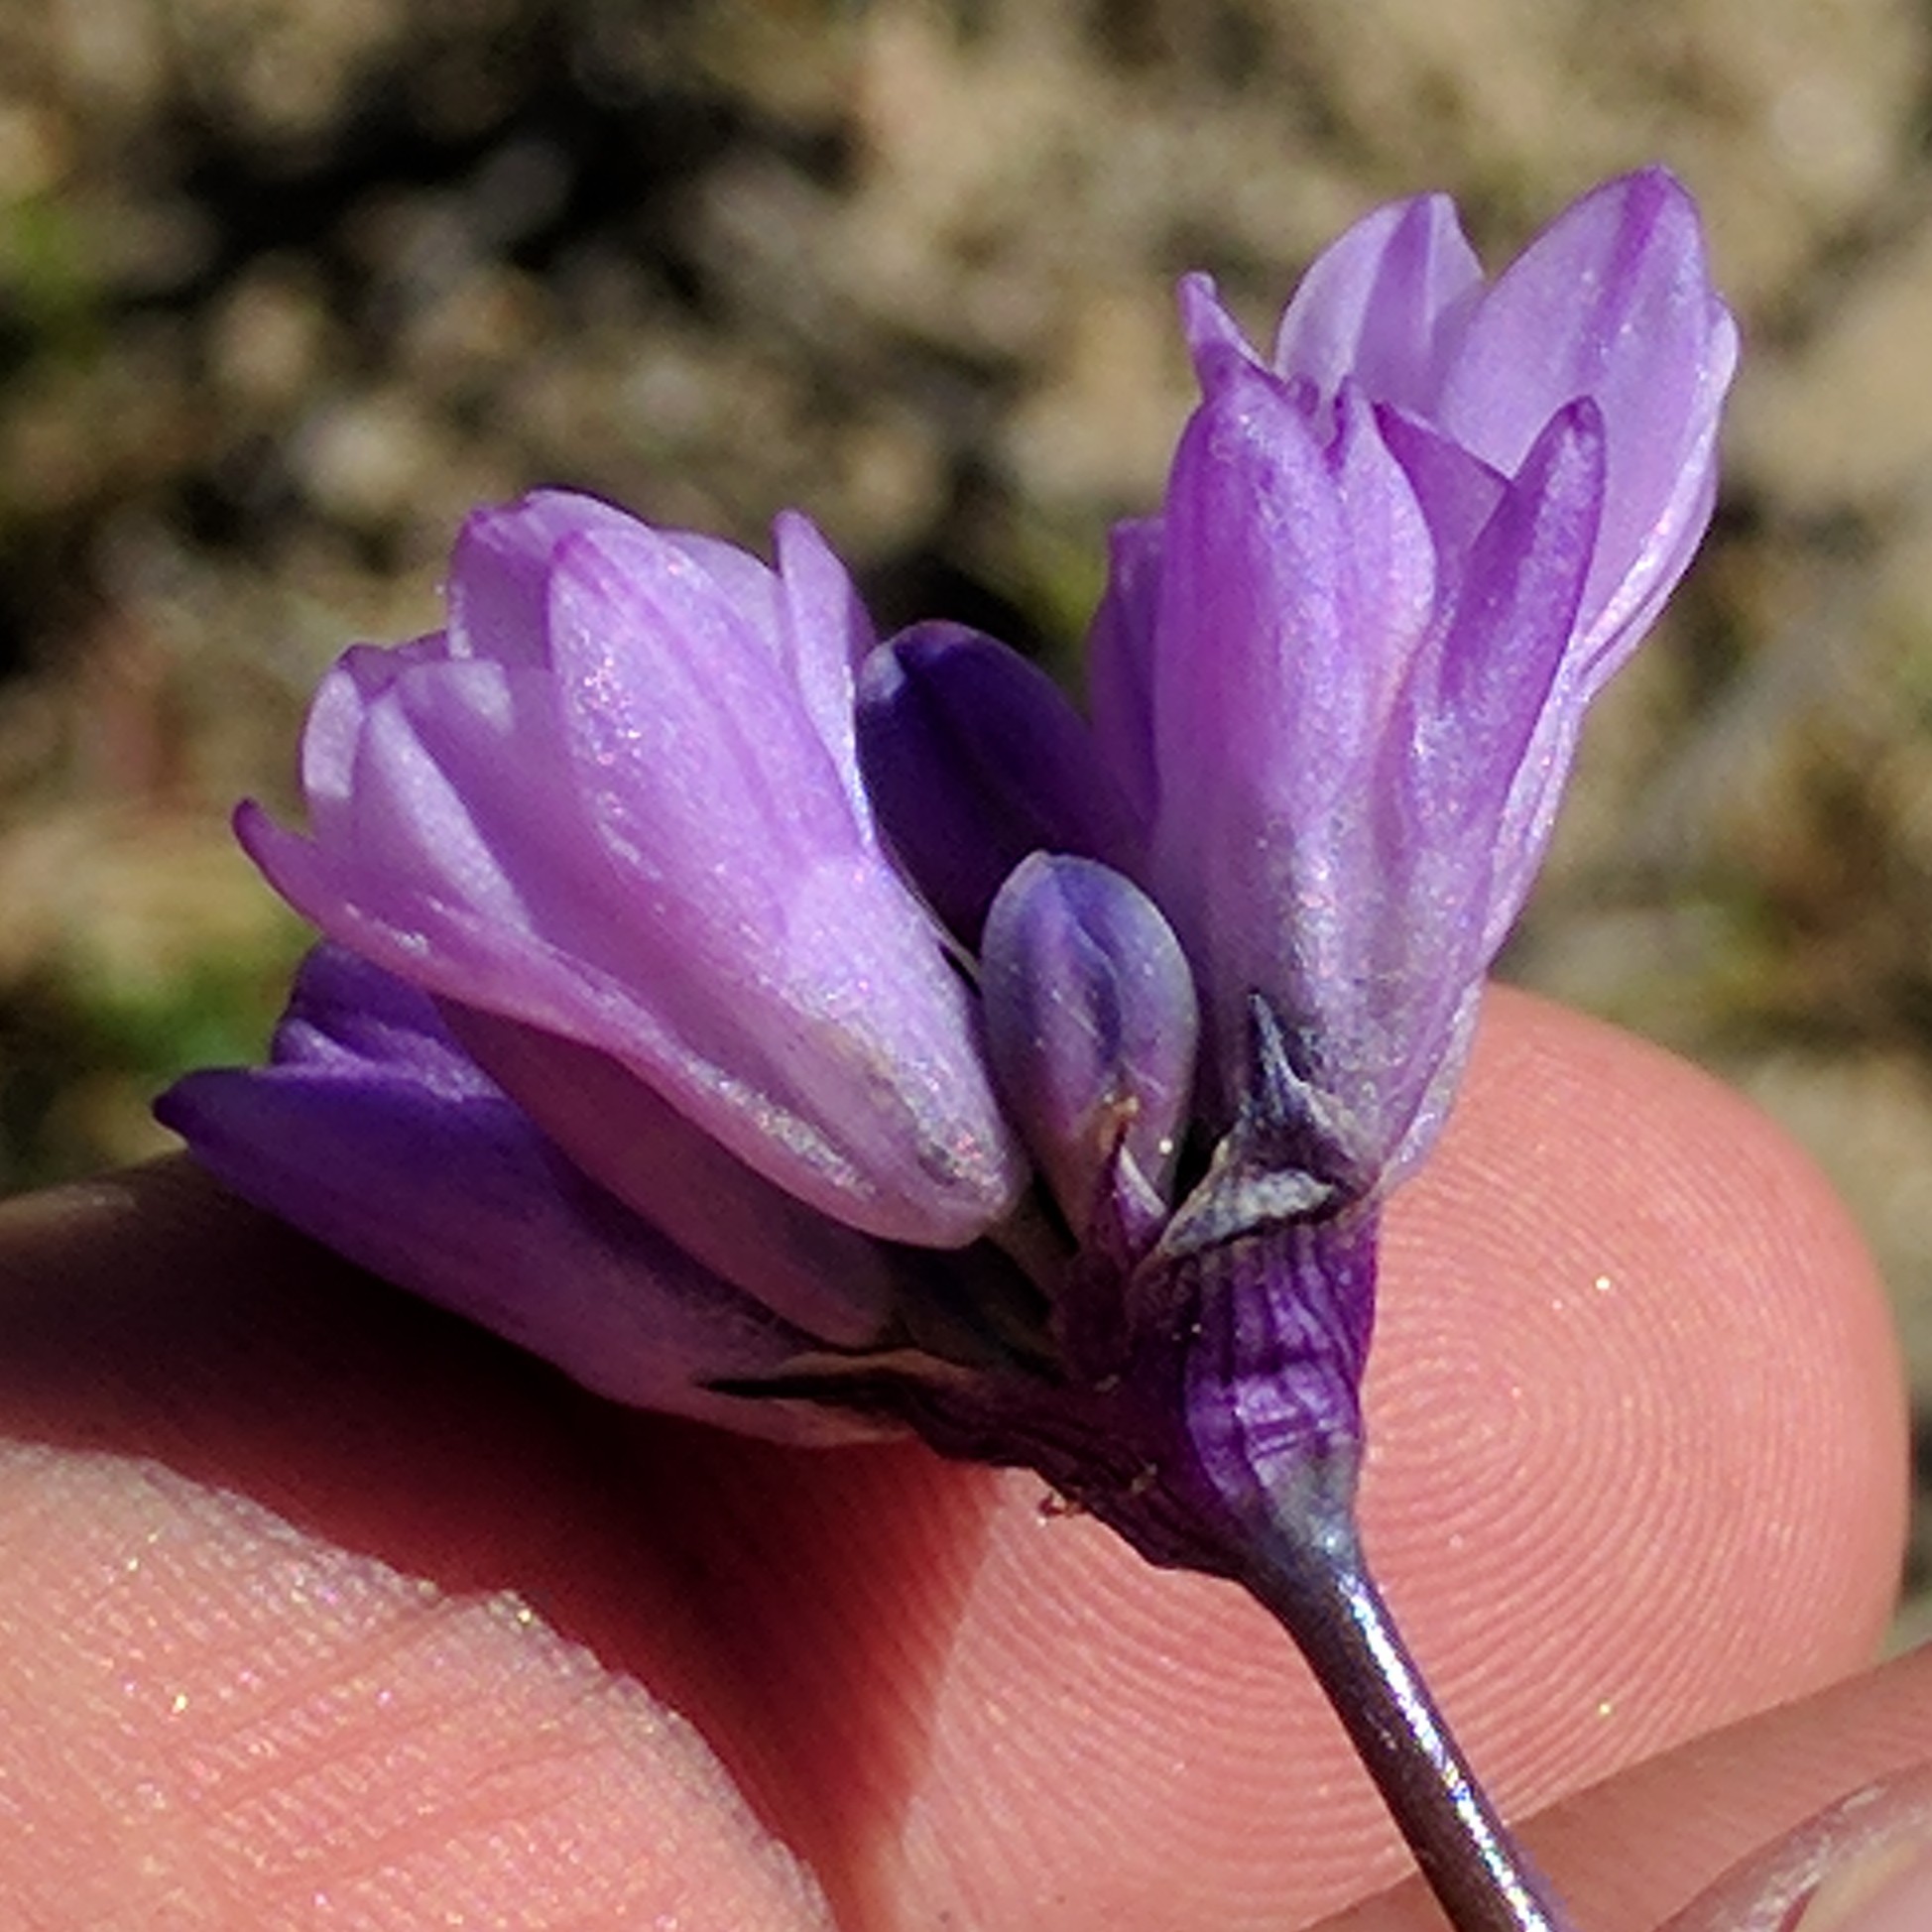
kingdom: Plantae
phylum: Tracheophyta
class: Liliopsida
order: Asparagales
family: Asparagaceae
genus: Dipterostemon
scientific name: Dipterostemon capitatus
